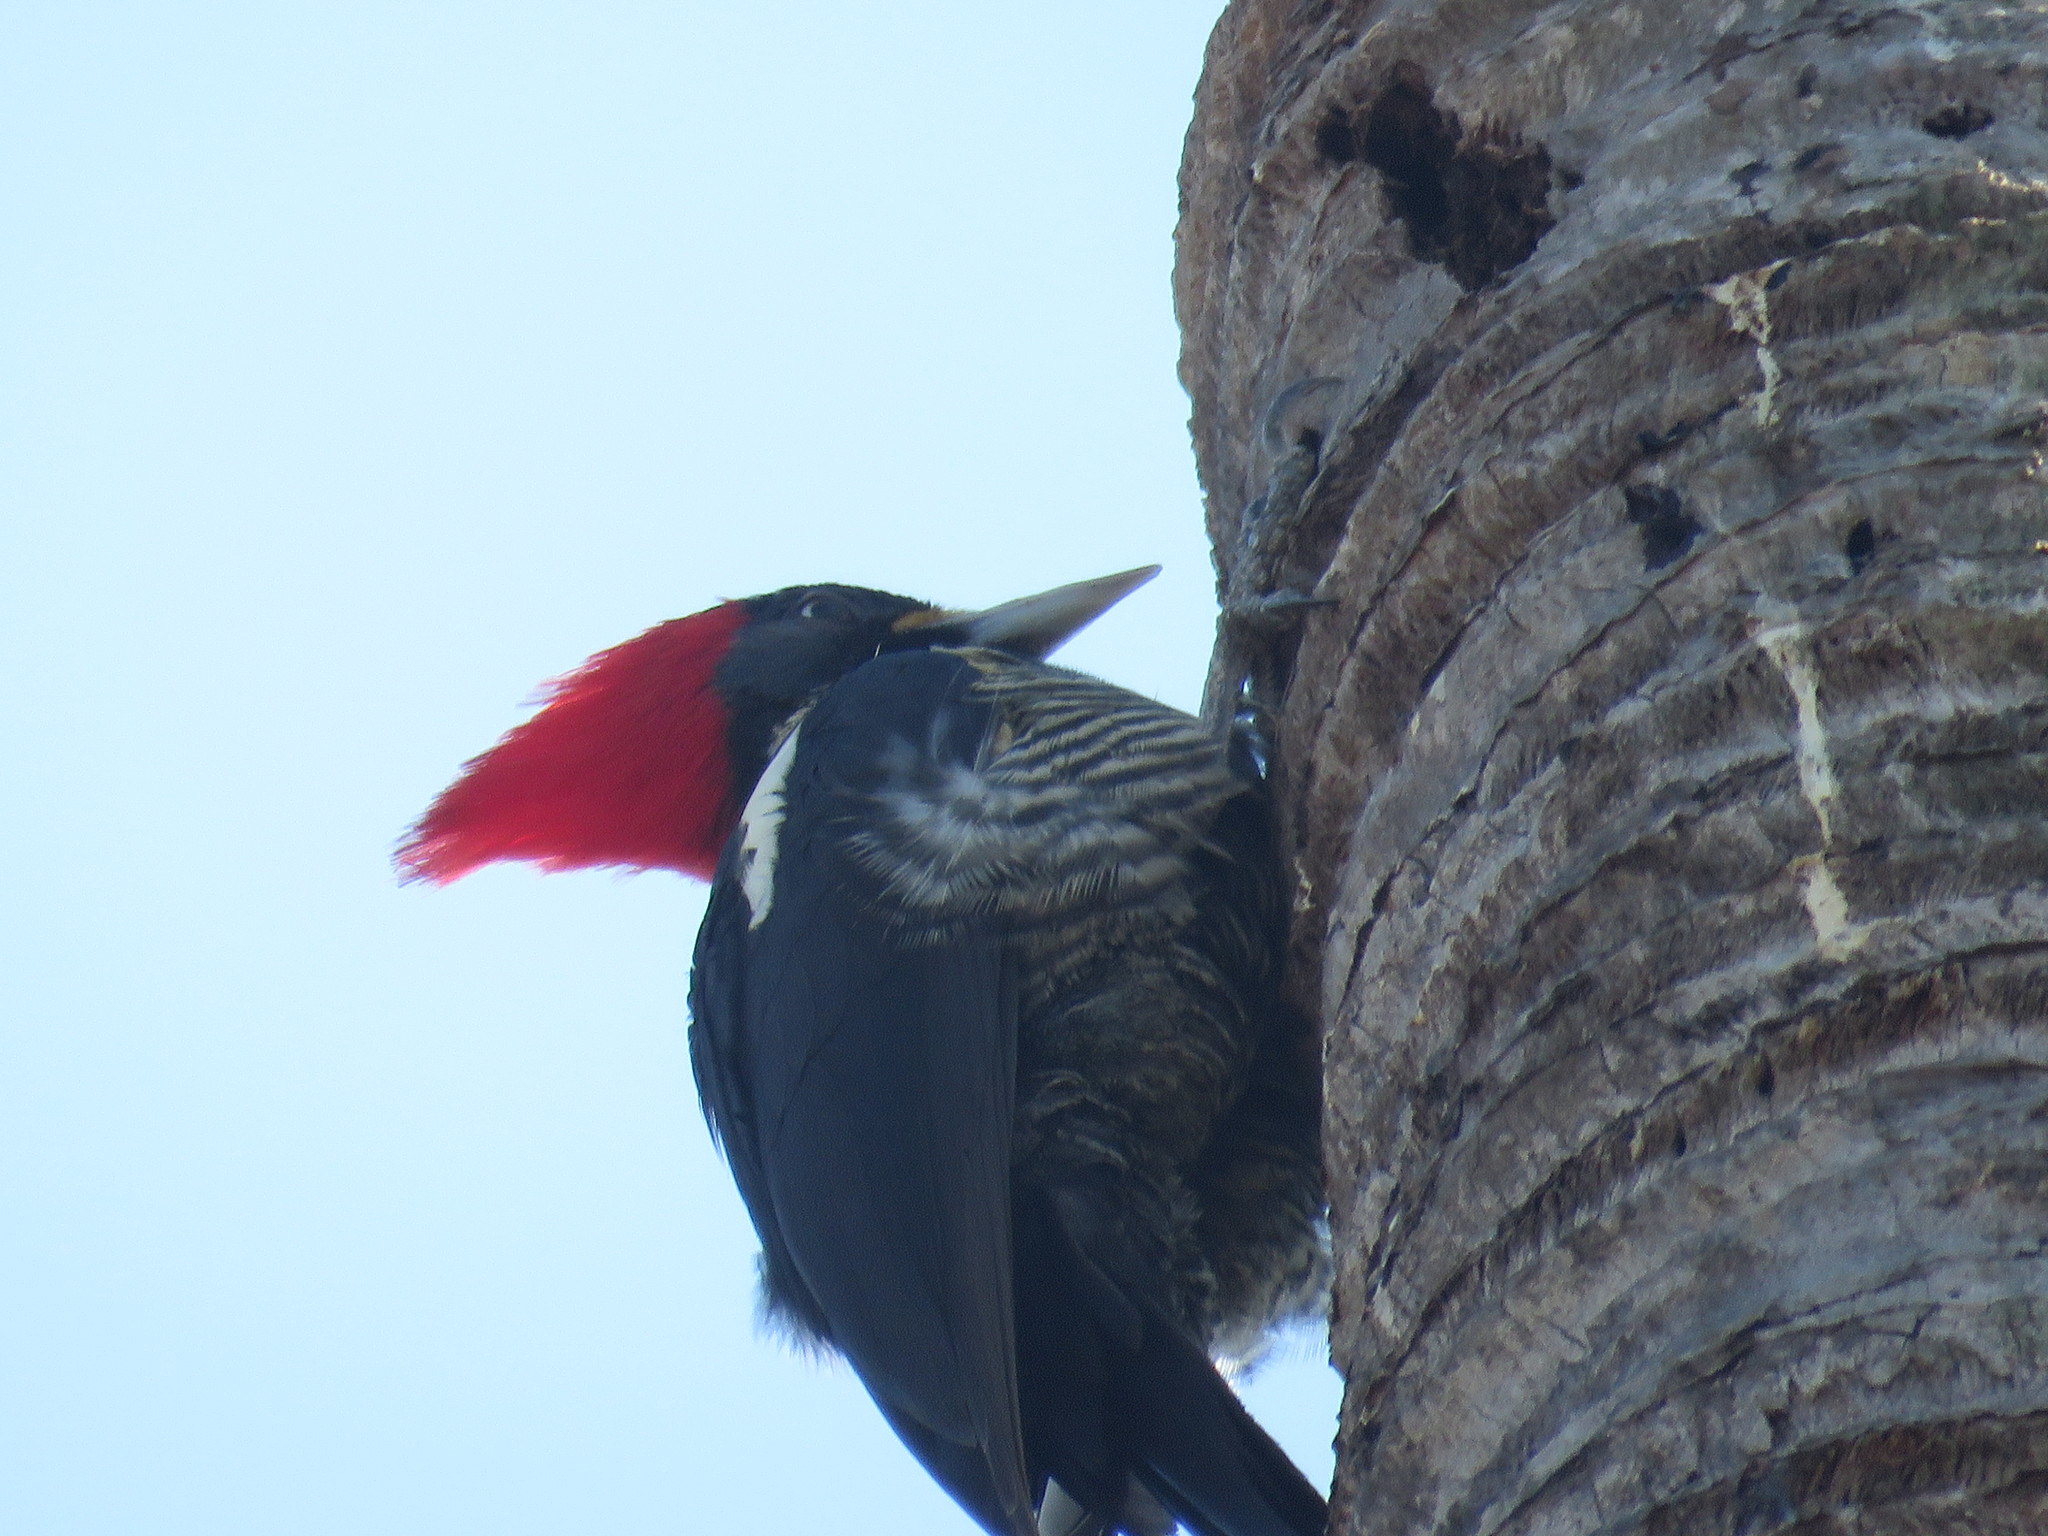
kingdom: Animalia
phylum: Chordata
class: Aves
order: Piciformes
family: Picidae
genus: Dryocopus
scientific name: Dryocopus lineatus
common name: Lineated woodpecker
